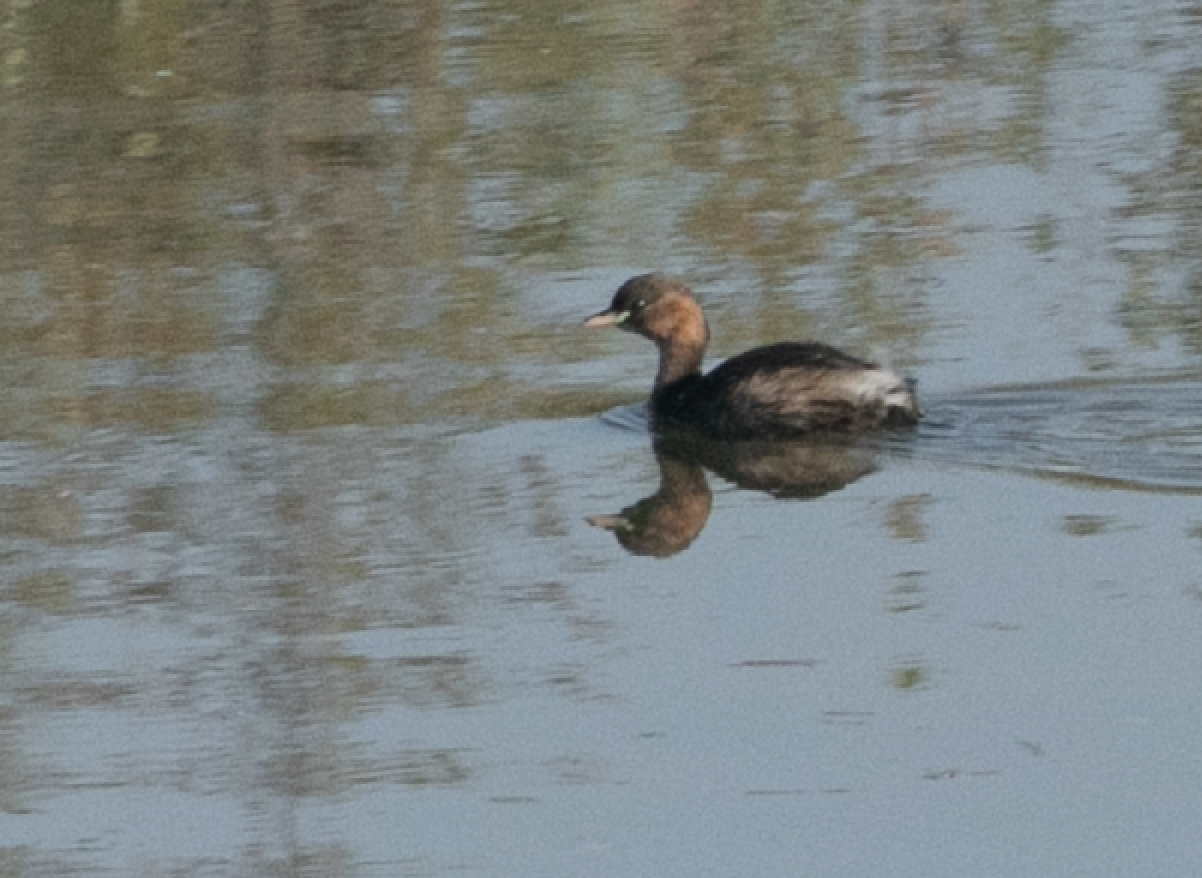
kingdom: Animalia
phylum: Chordata
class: Aves
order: Podicipediformes
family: Podicipedidae
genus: Tachybaptus
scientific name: Tachybaptus ruficollis
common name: Little grebe
